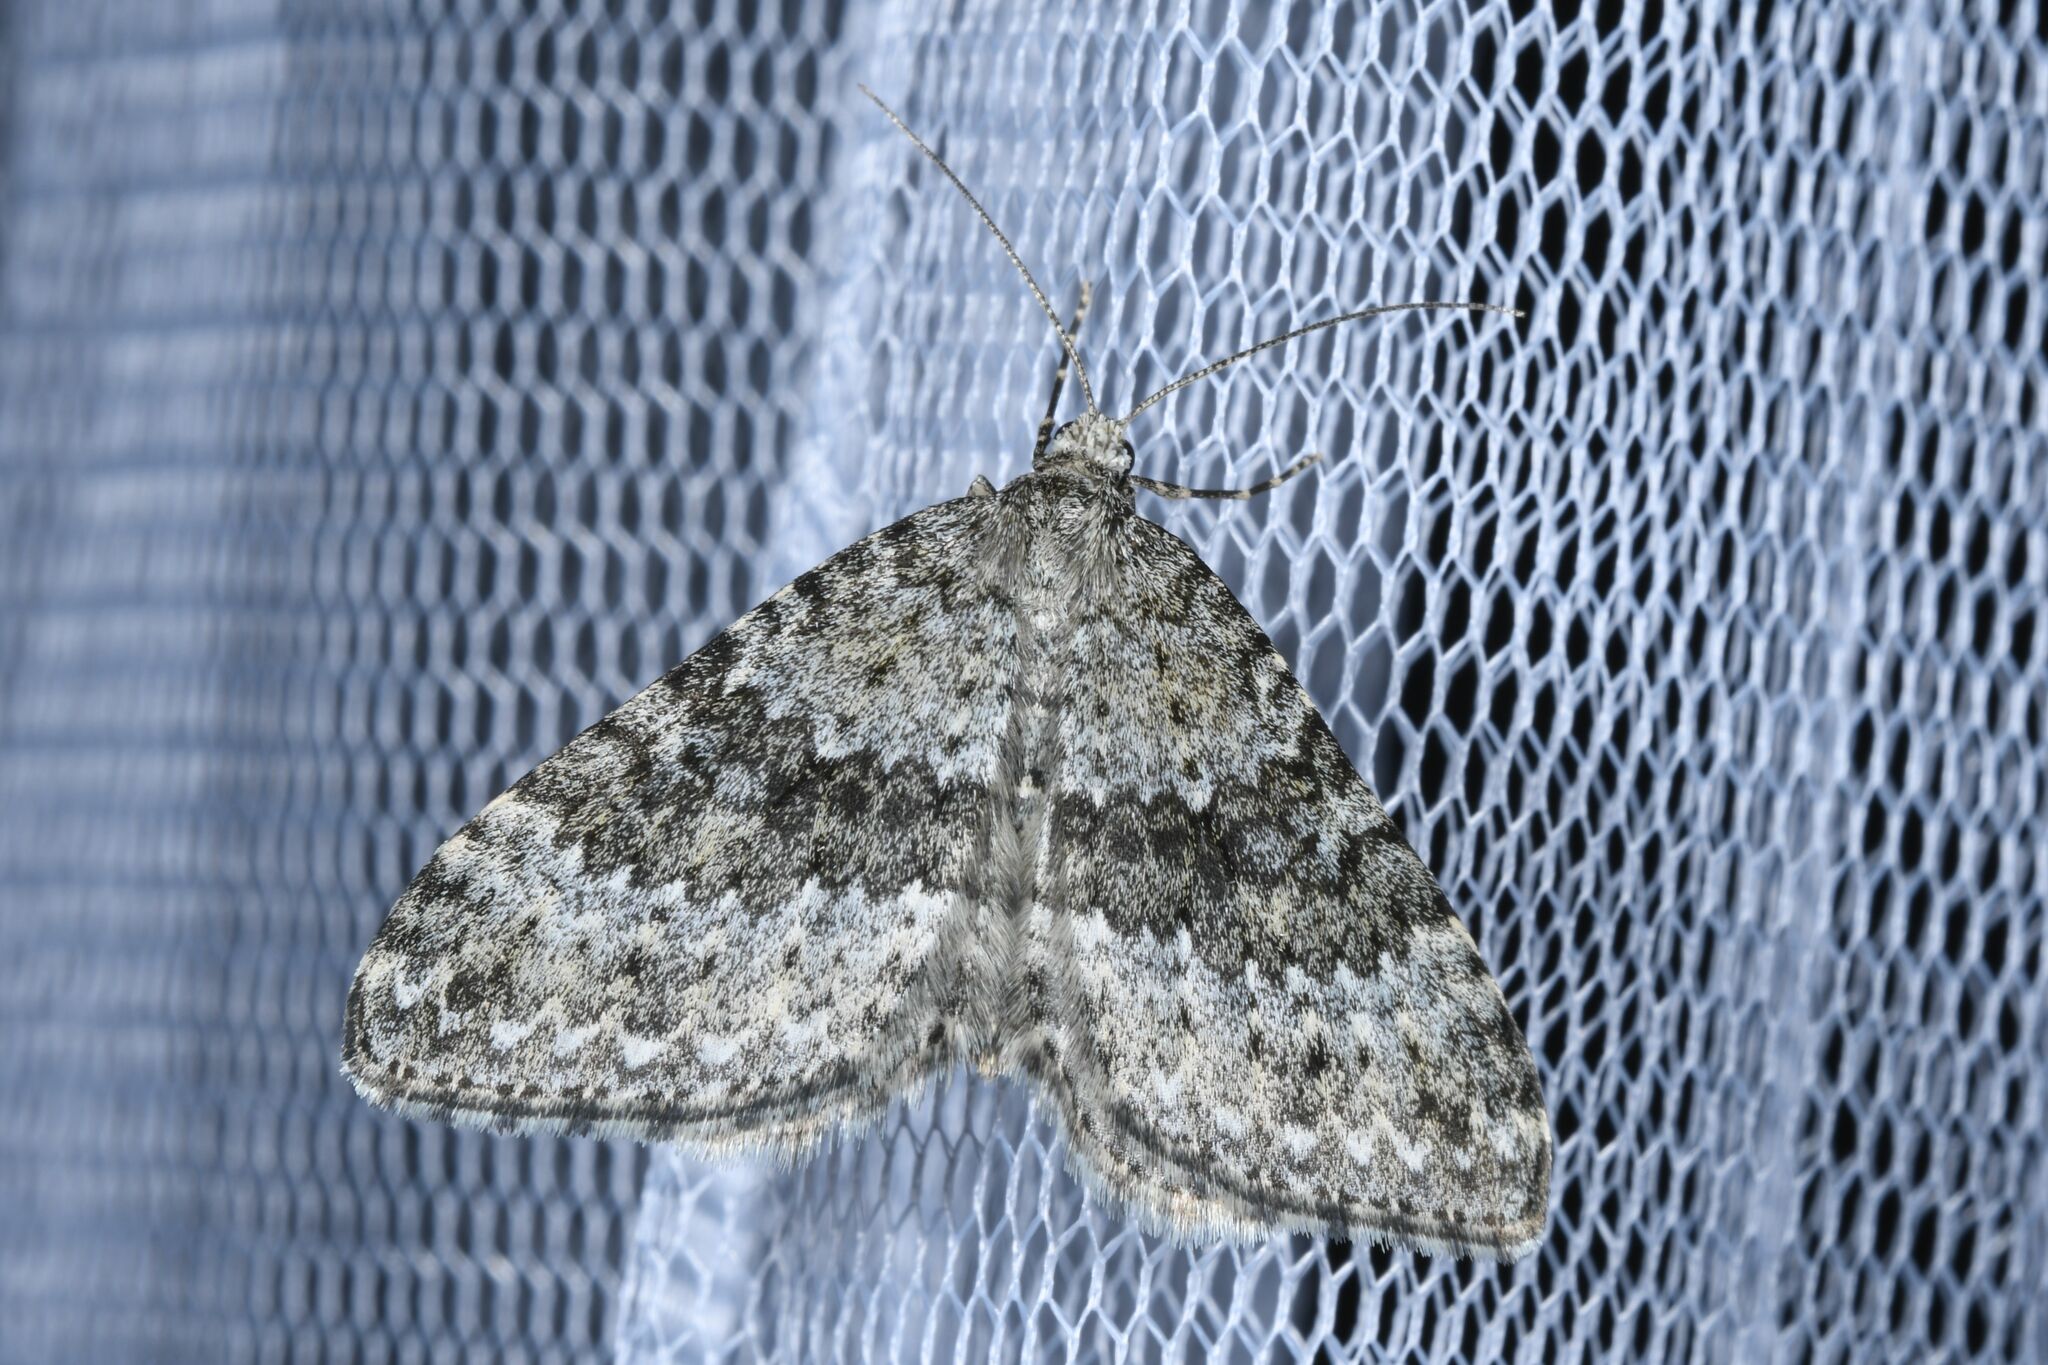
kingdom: Animalia
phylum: Arthropoda
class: Insecta
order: Lepidoptera
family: Geometridae
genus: Entephria
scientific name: Entephria caesiata
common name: Grey mountain moth
